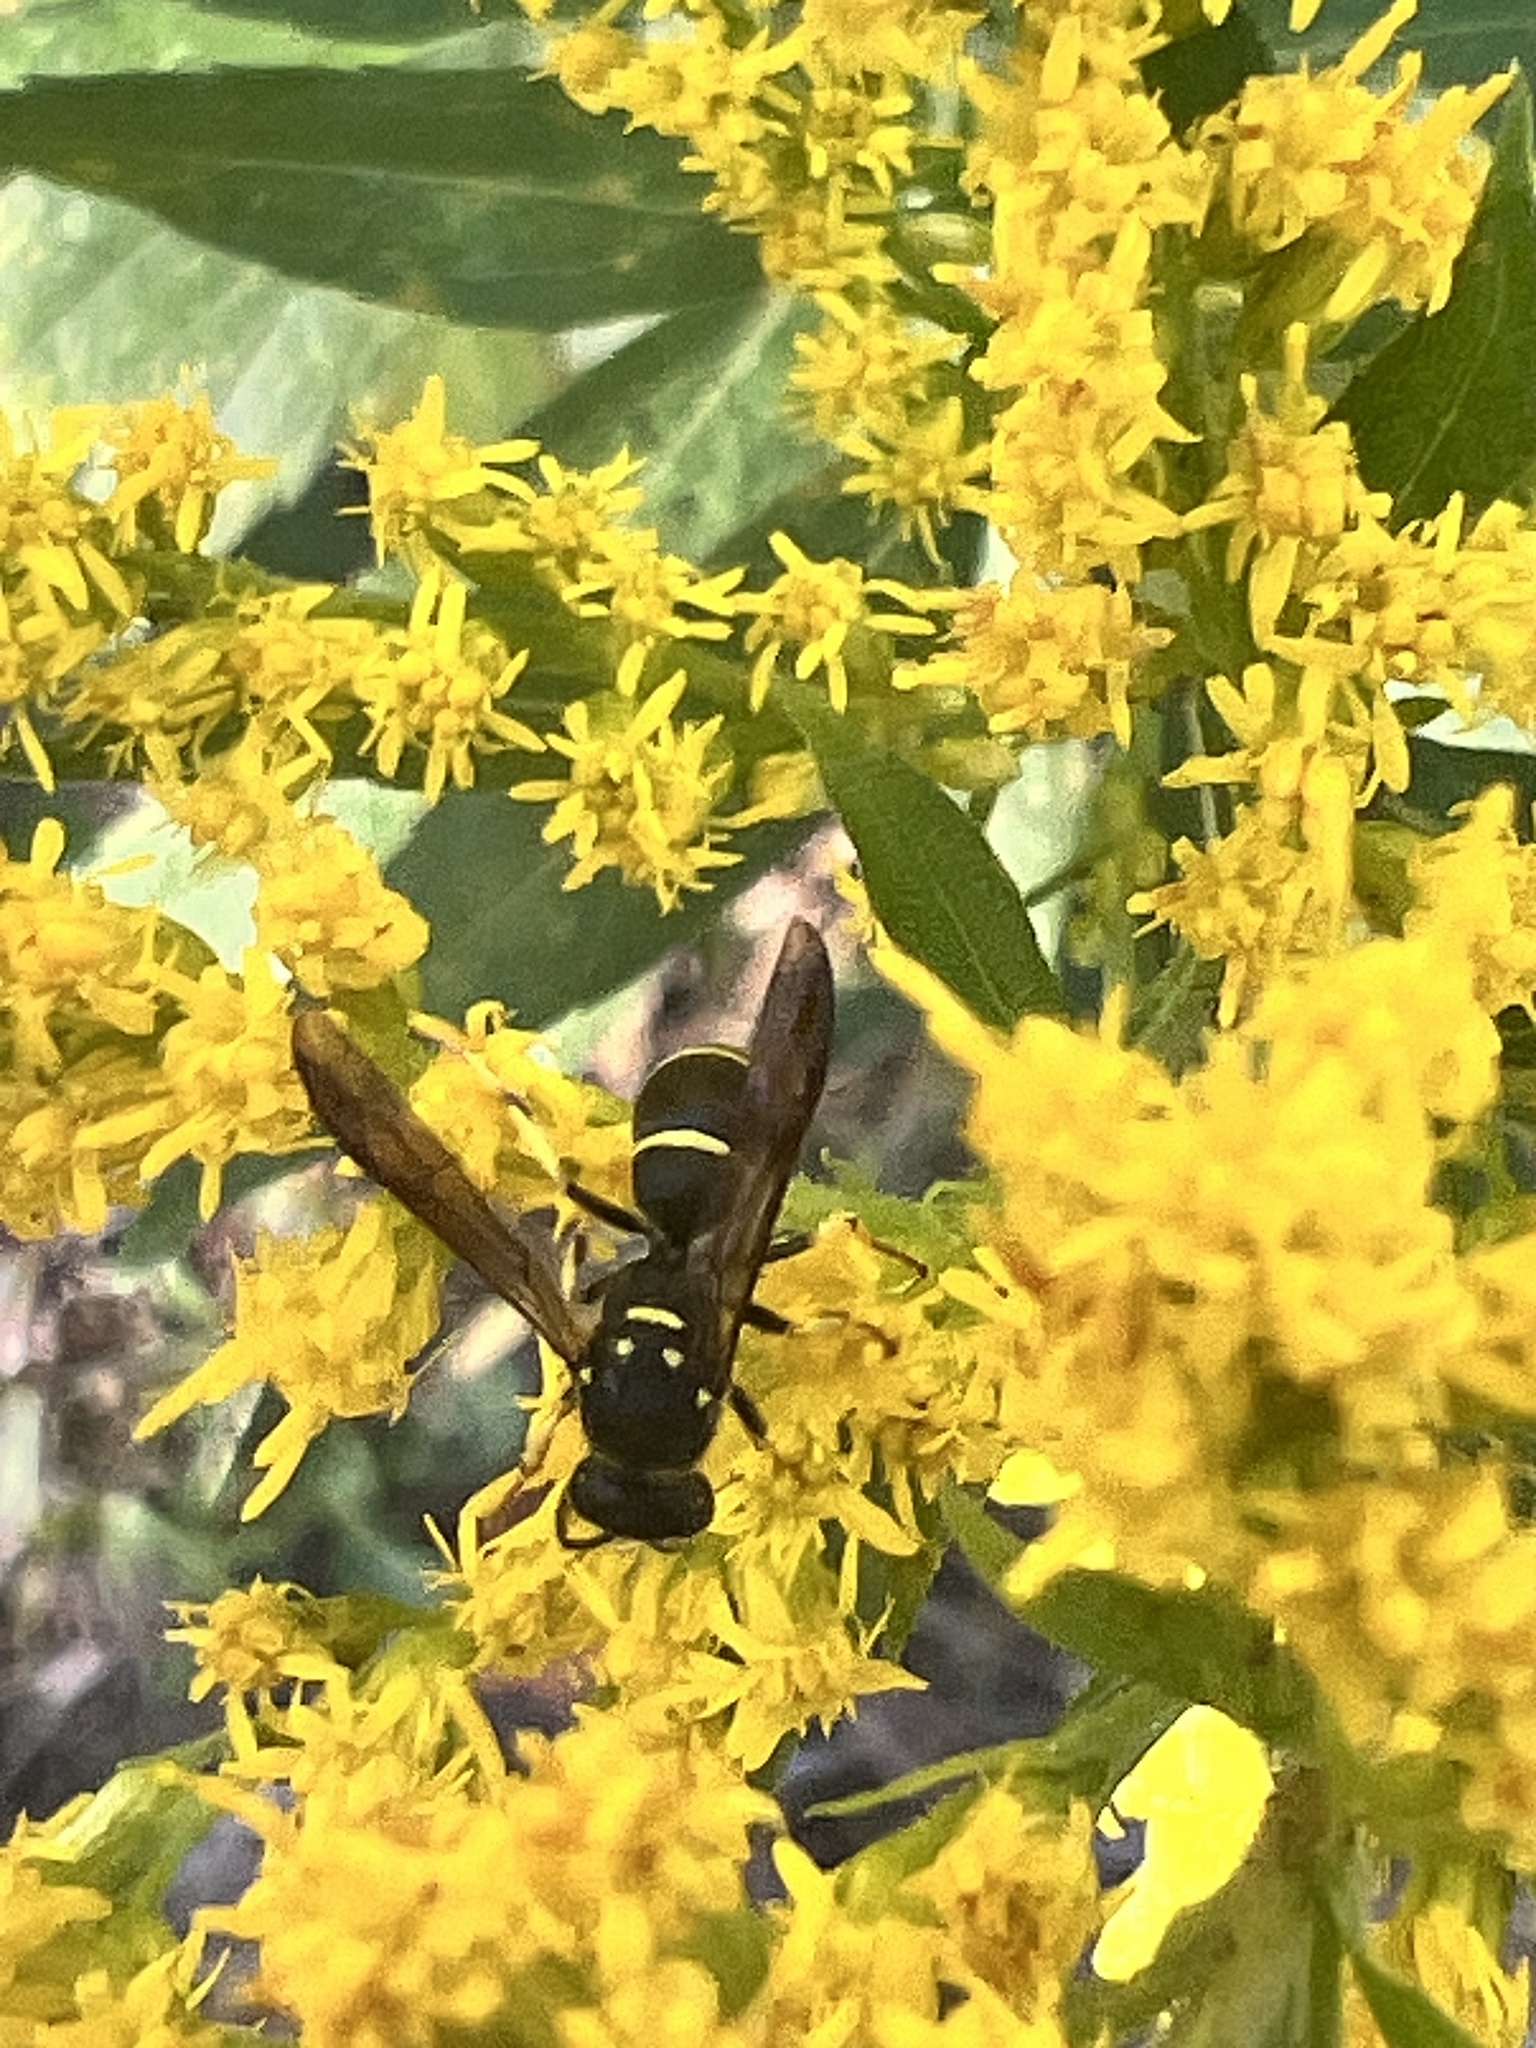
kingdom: Animalia
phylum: Arthropoda
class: Insecta
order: Hymenoptera
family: Vespidae
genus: Ancistrocerus
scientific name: Ancistrocerus adiabatus
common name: Bramble mason wasp
